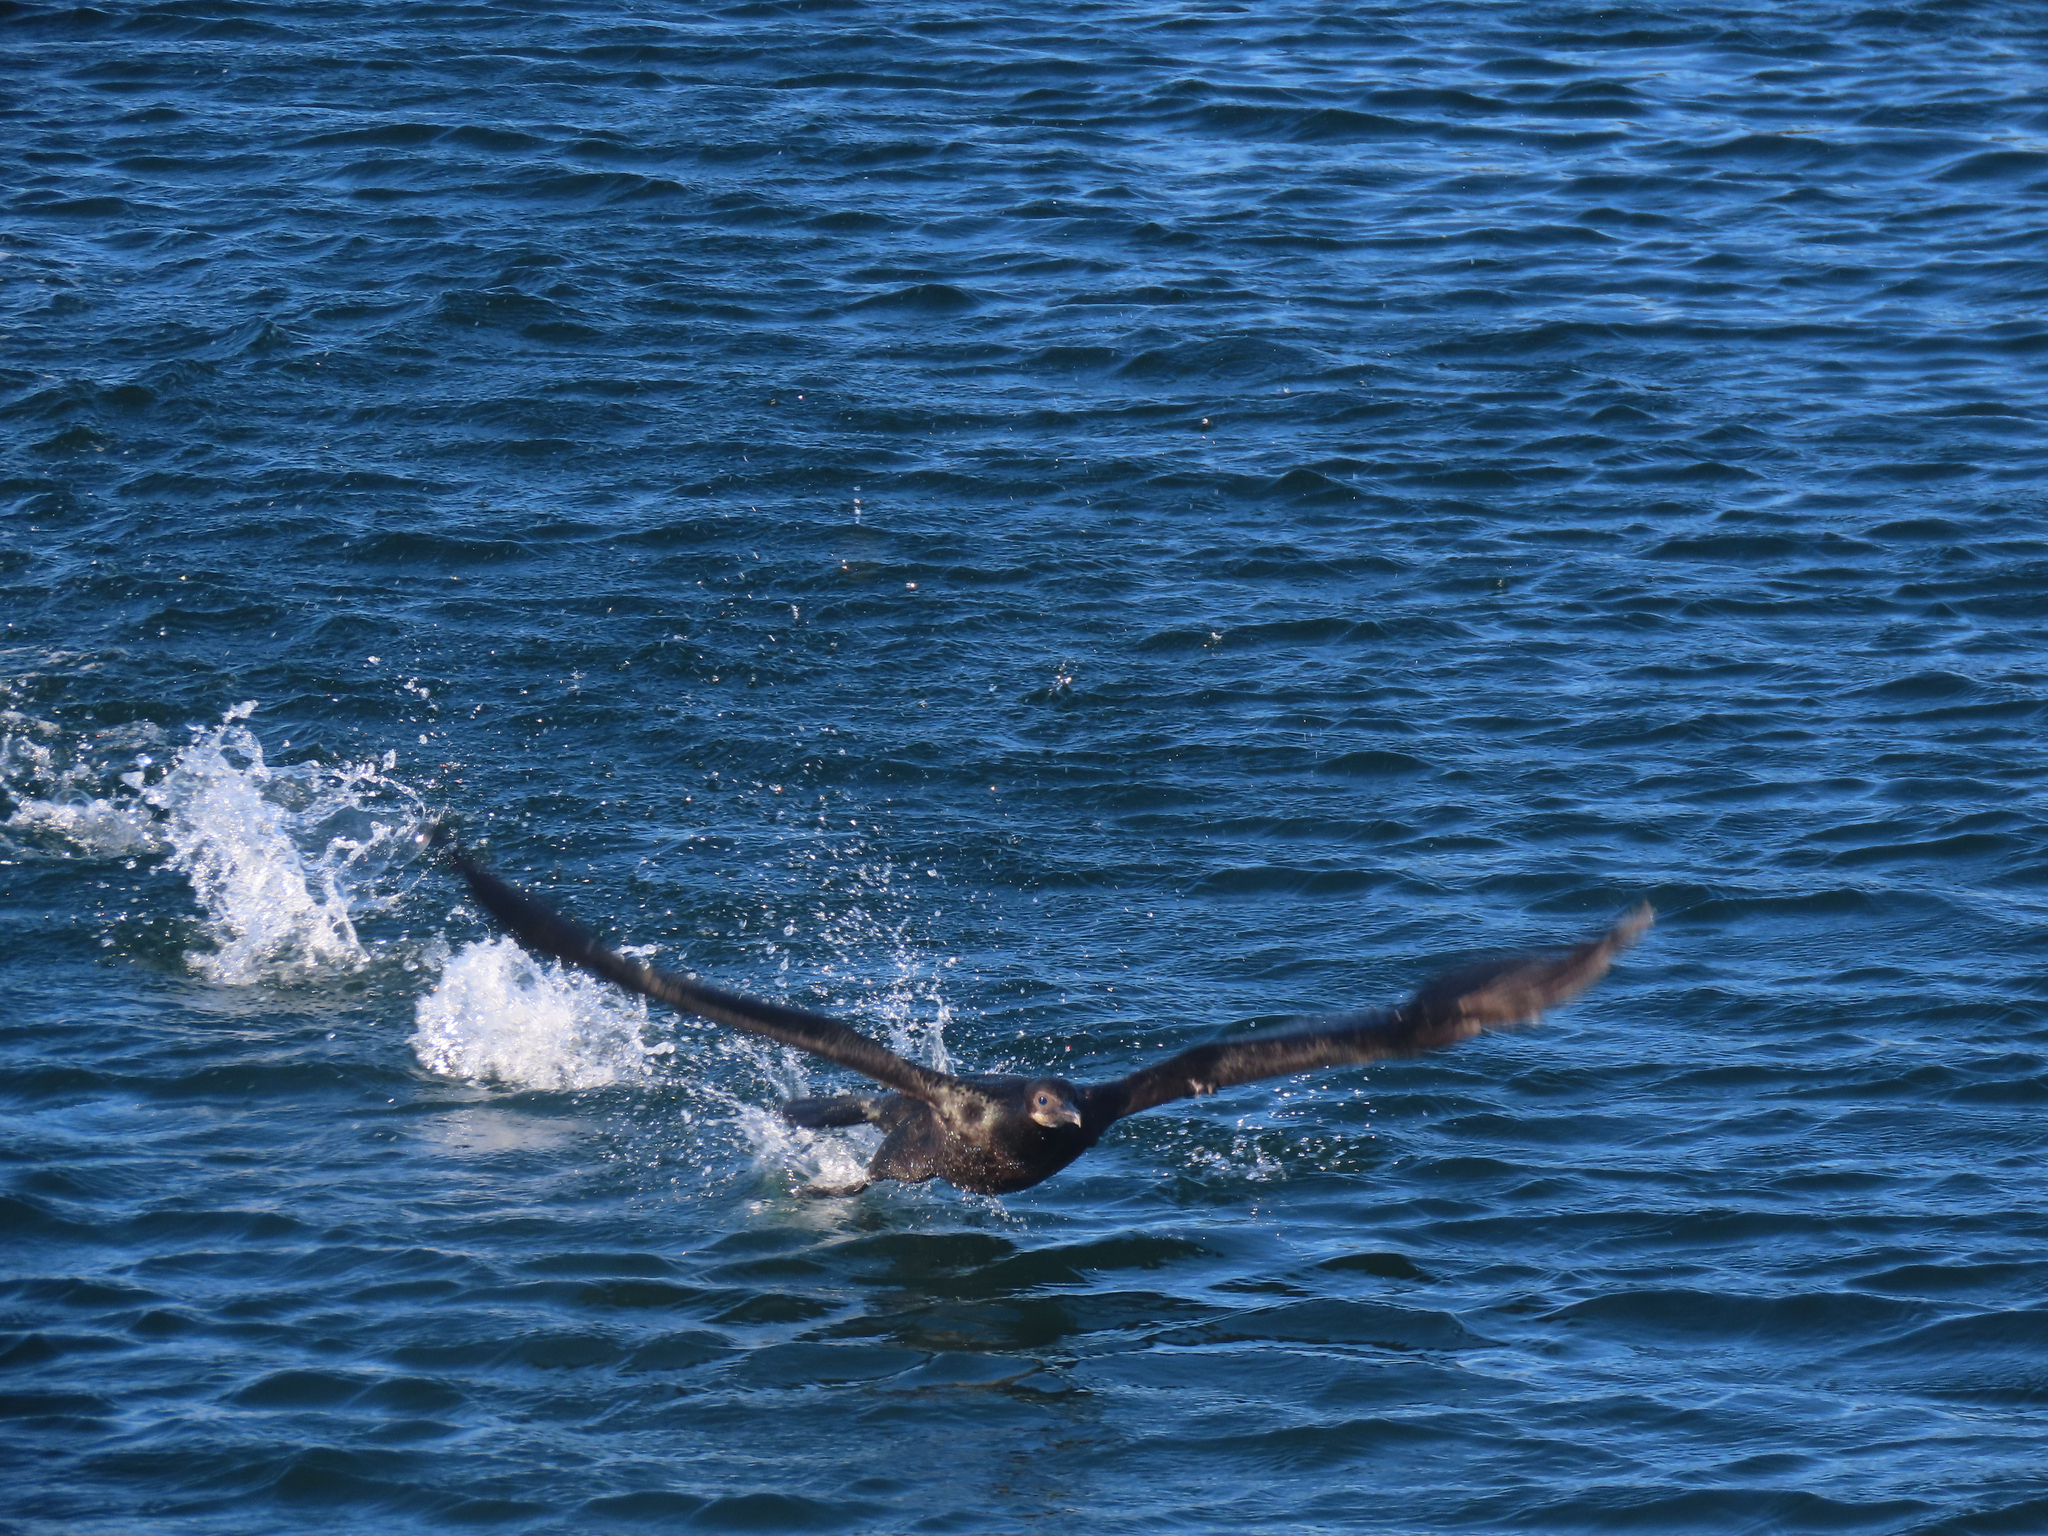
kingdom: Animalia
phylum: Chordata
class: Aves
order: Suliformes
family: Phalacrocoracidae
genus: Urile
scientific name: Urile penicillatus
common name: Brandt's cormorant
